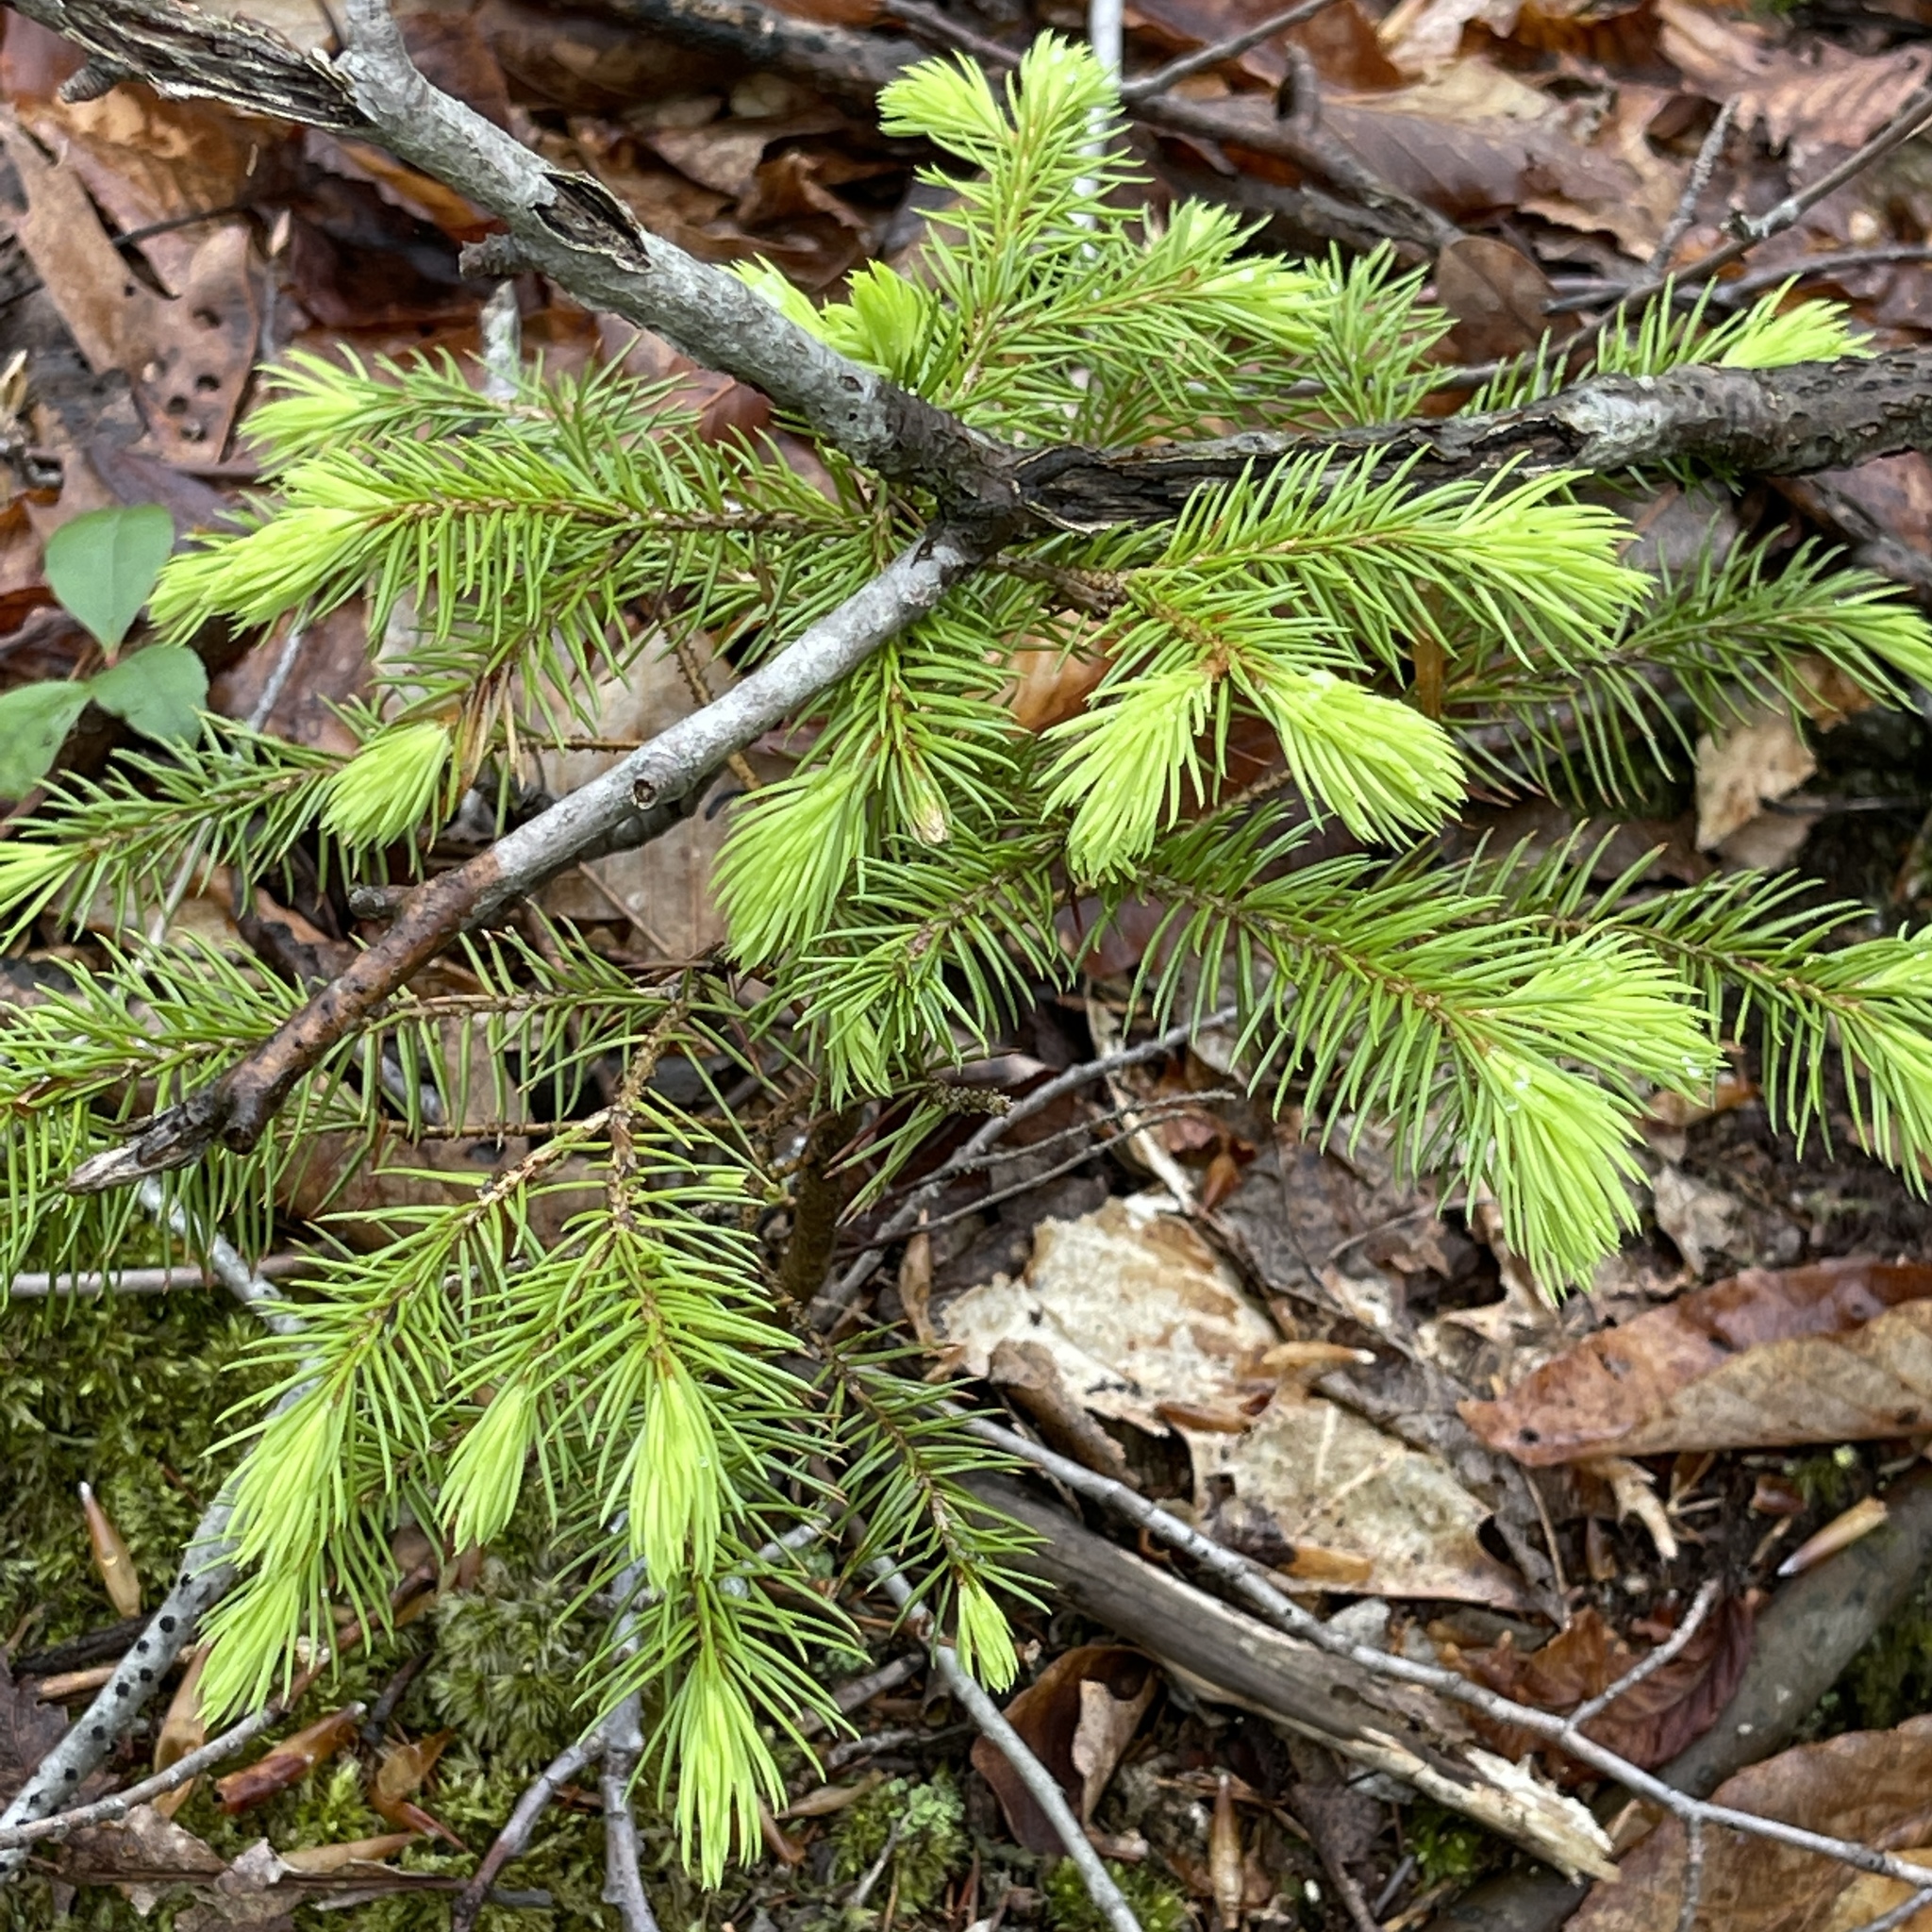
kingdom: Plantae
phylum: Tracheophyta
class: Pinopsida
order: Pinales
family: Pinaceae
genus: Picea
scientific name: Picea abies
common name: Norway spruce
